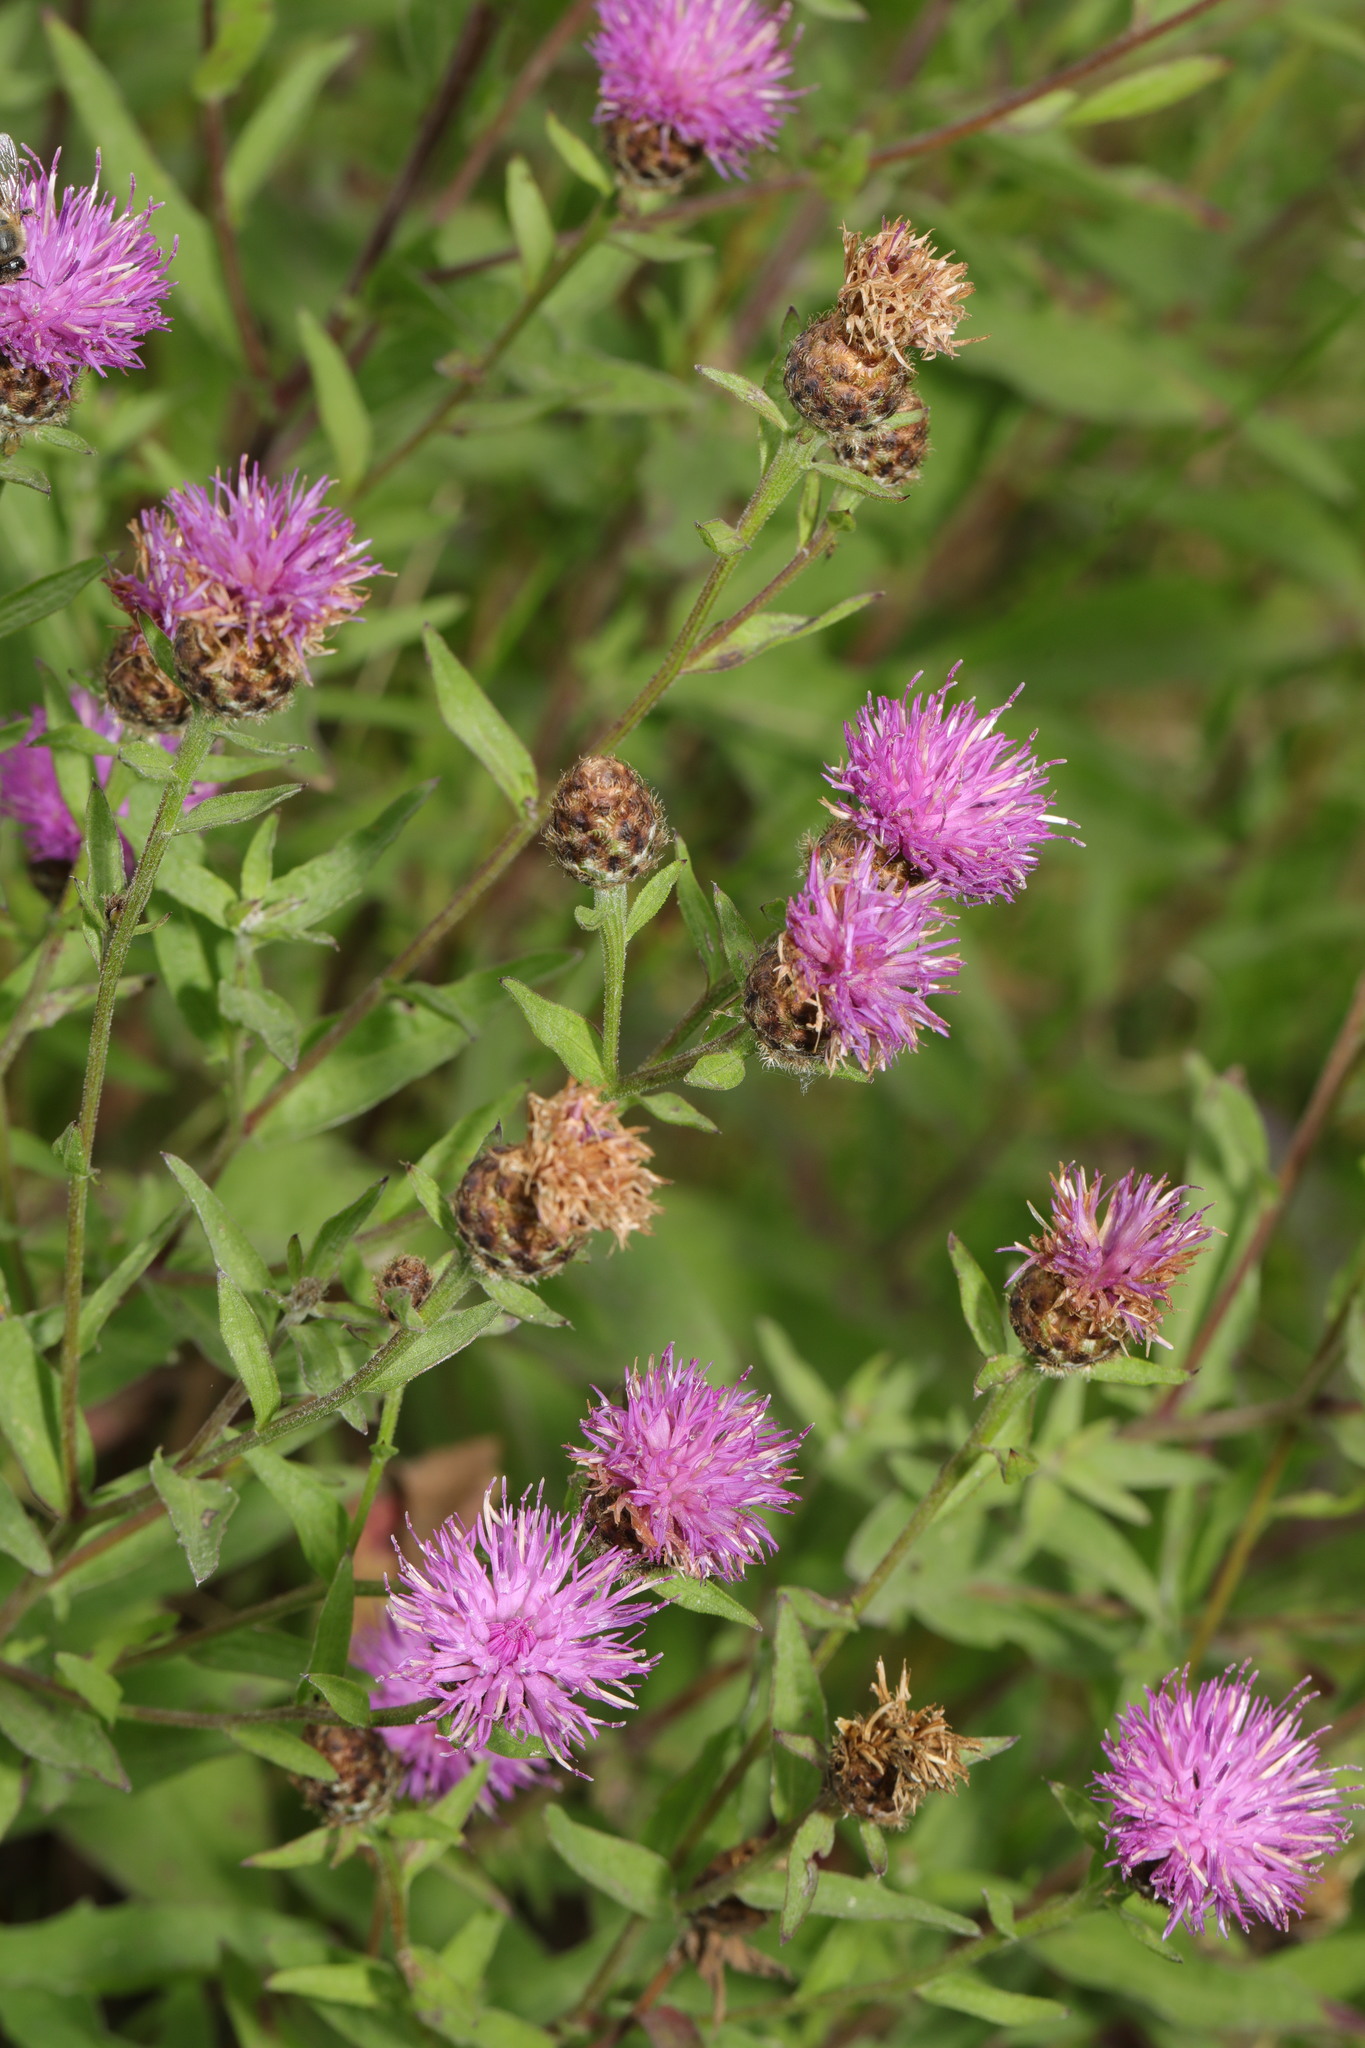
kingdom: Plantae
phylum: Tracheophyta
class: Magnoliopsida
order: Asterales
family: Asteraceae
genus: Centaurea
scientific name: Centaurea nigra
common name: Lesser knapweed
